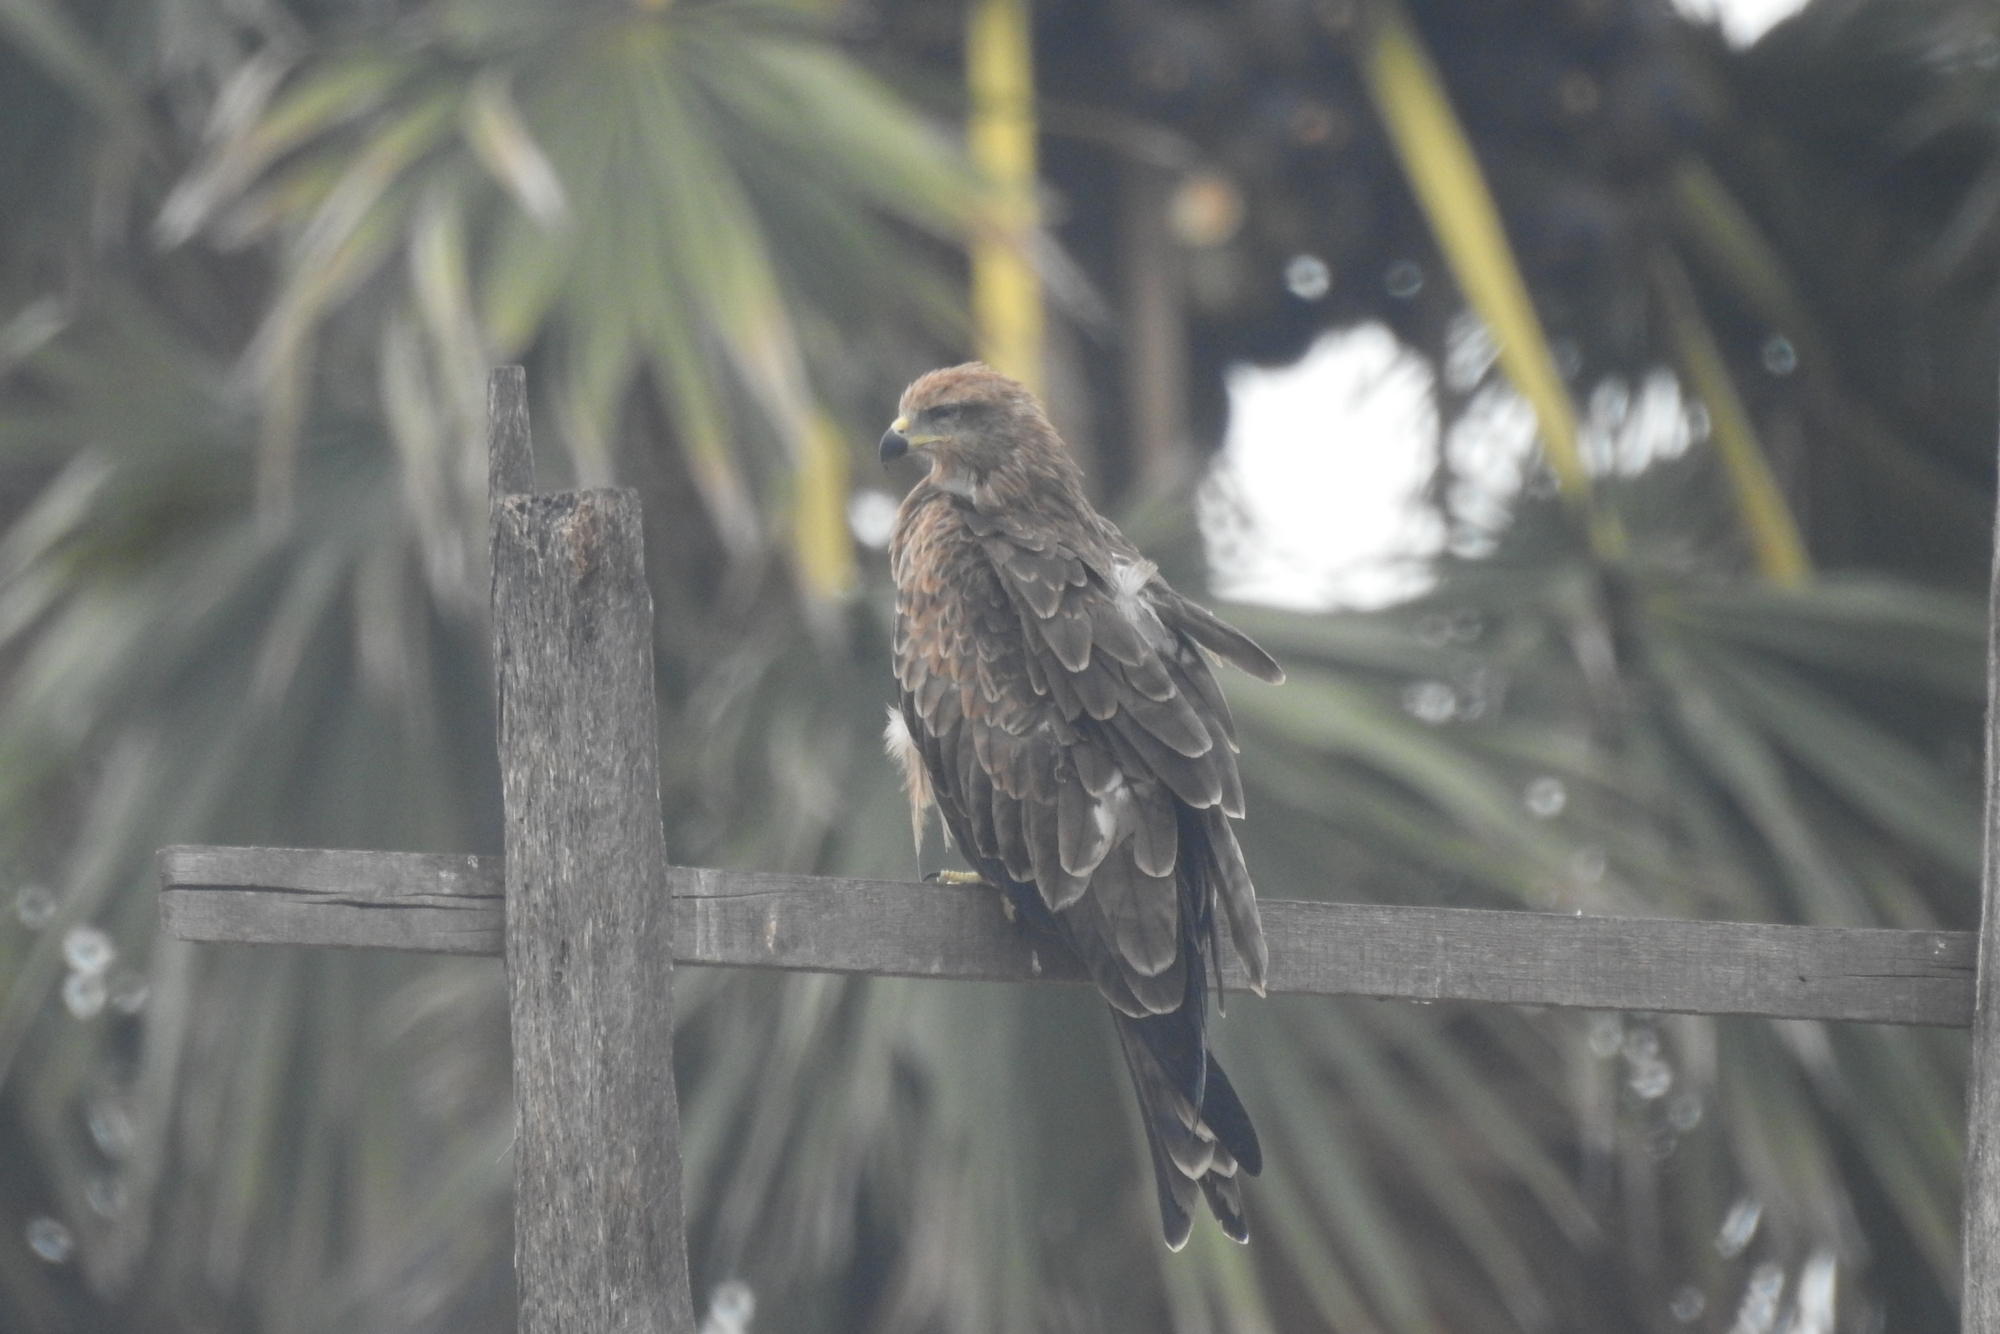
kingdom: Animalia
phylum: Chordata
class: Aves
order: Accipitriformes
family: Accipitridae
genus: Milvus
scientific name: Milvus migrans
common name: Black kite
